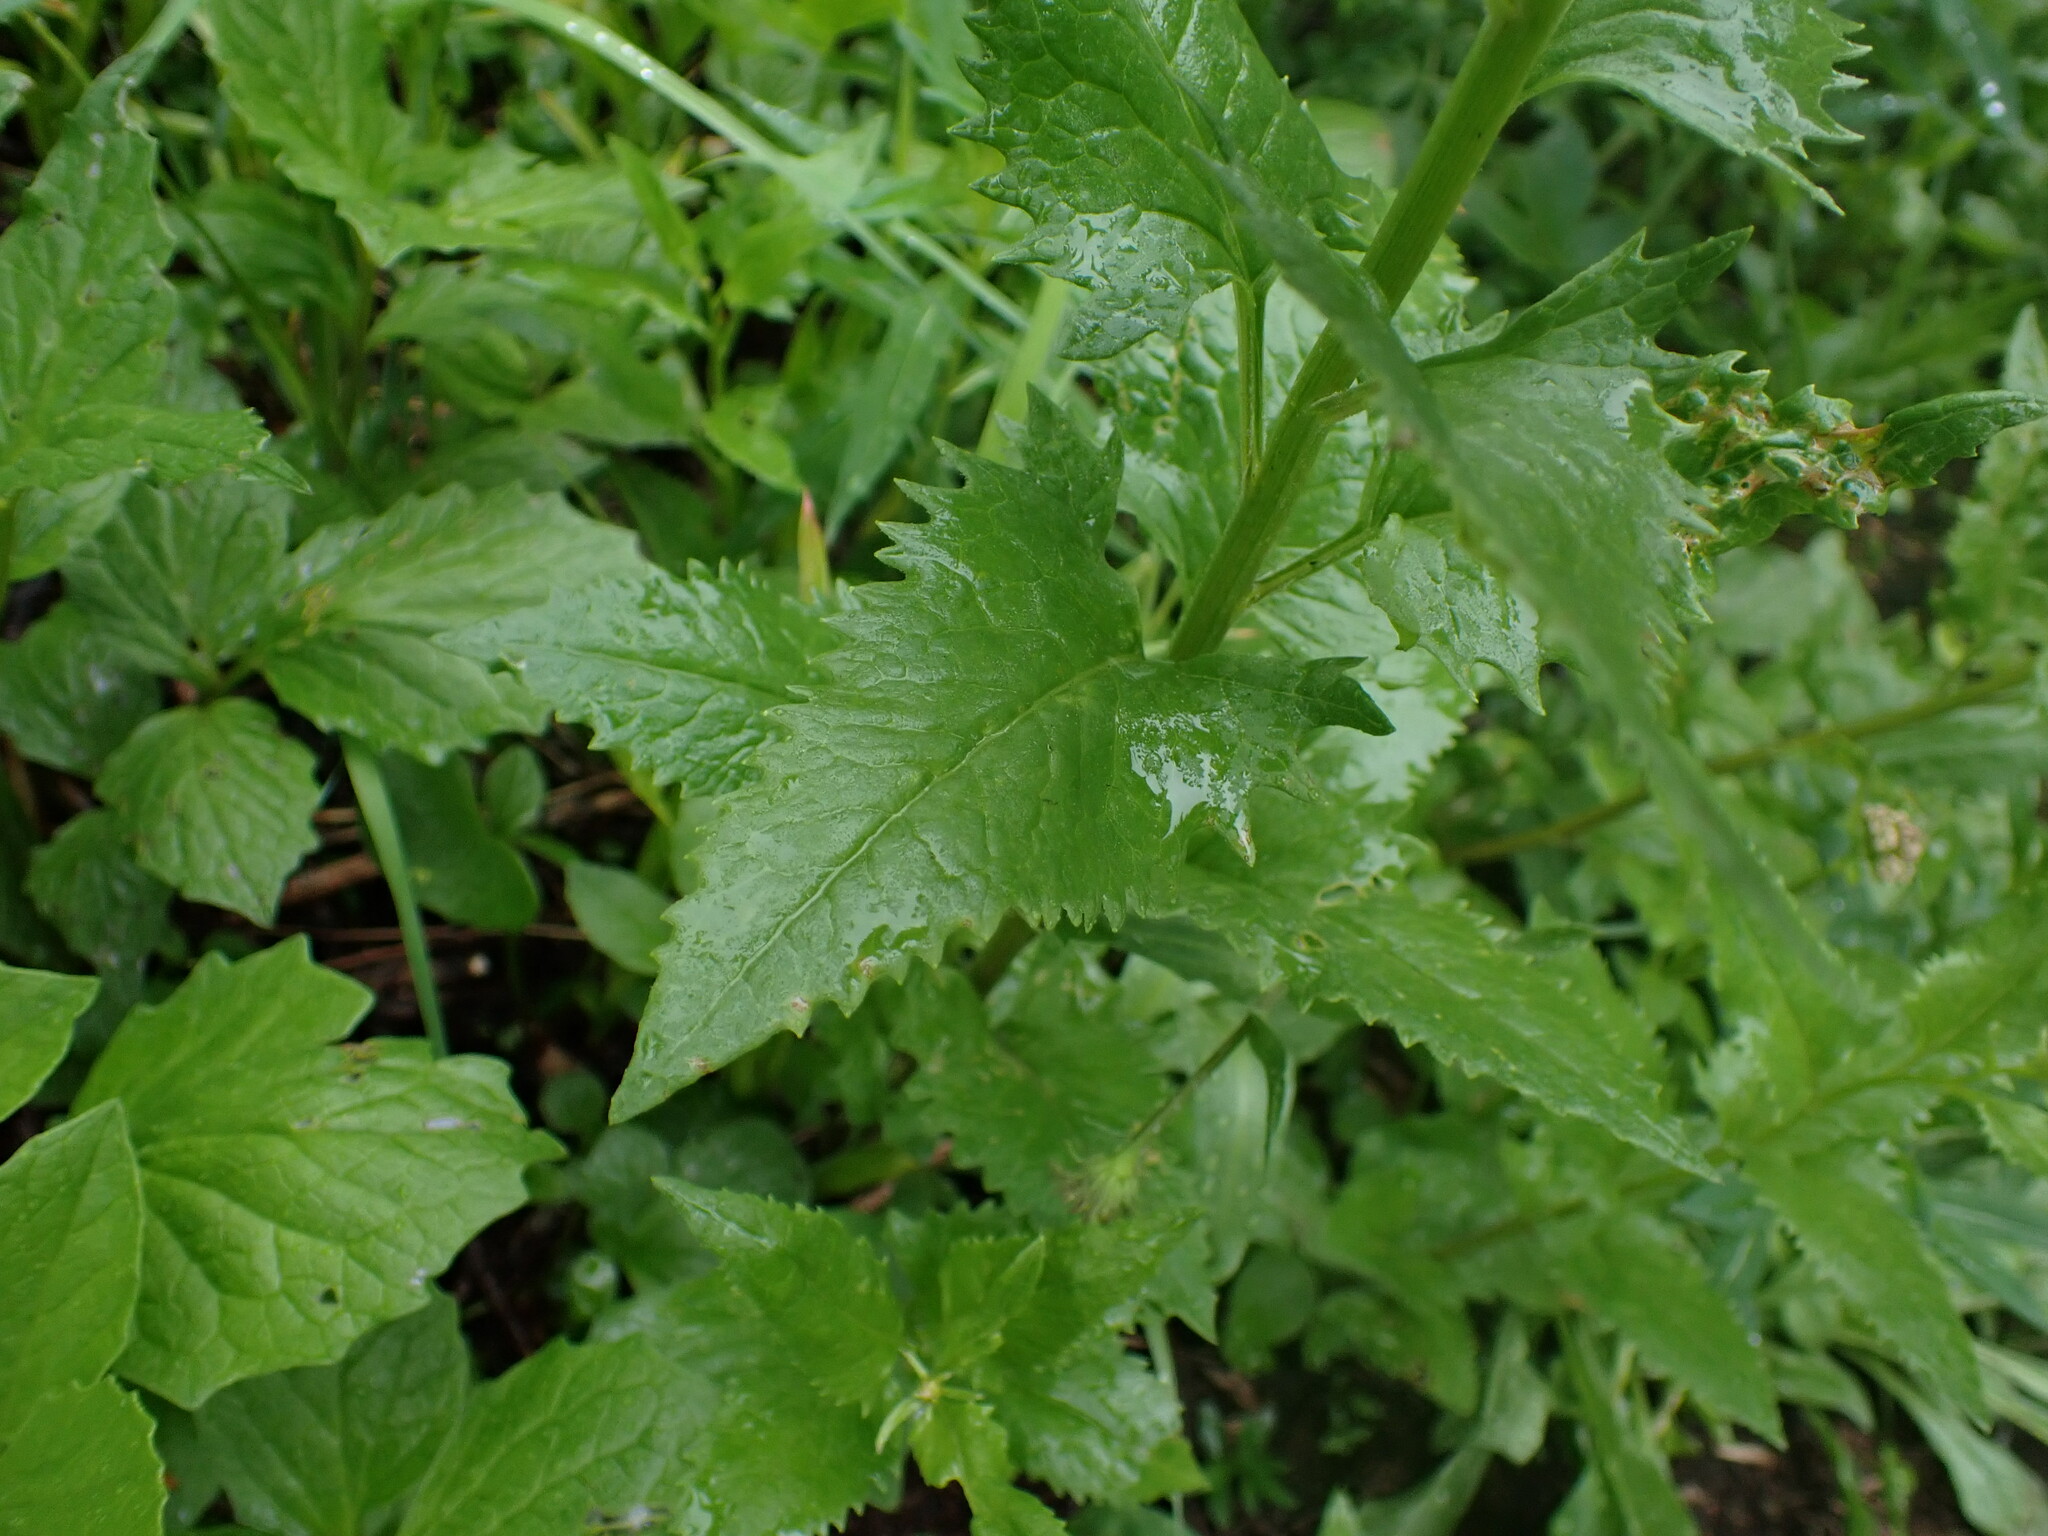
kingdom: Plantae
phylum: Tracheophyta
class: Magnoliopsida
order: Asterales
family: Asteraceae
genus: Senecio
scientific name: Senecio triangularis
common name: Arrowleaf butterweed
